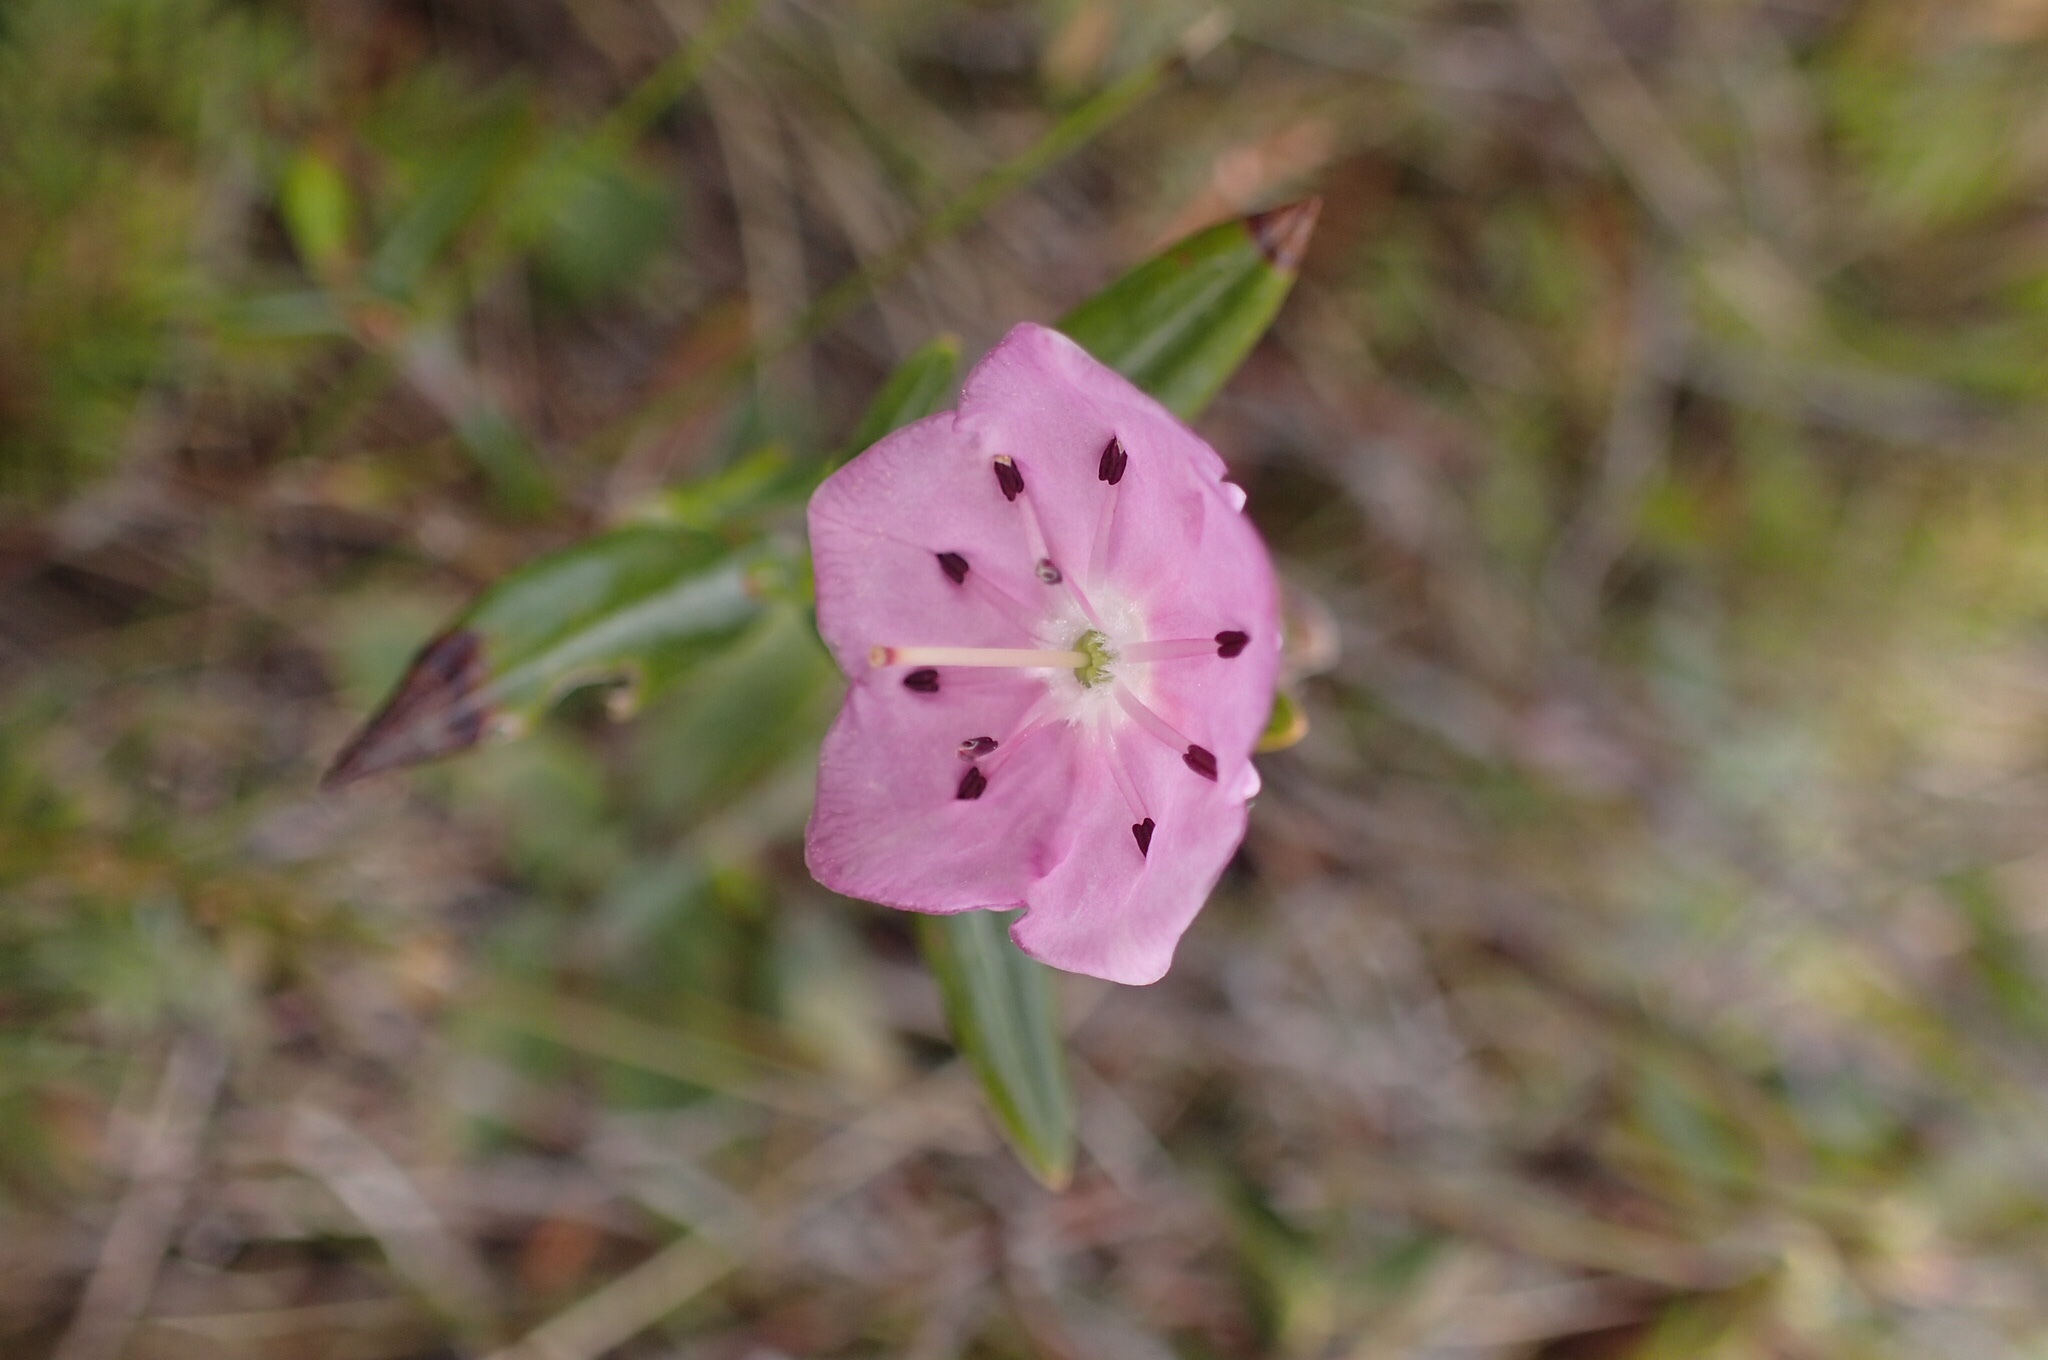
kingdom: Plantae
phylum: Tracheophyta
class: Magnoliopsida
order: Ericales
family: Ericaceae
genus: Kalmia
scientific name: Kalmia angustifolia
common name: Sheep-laurel
